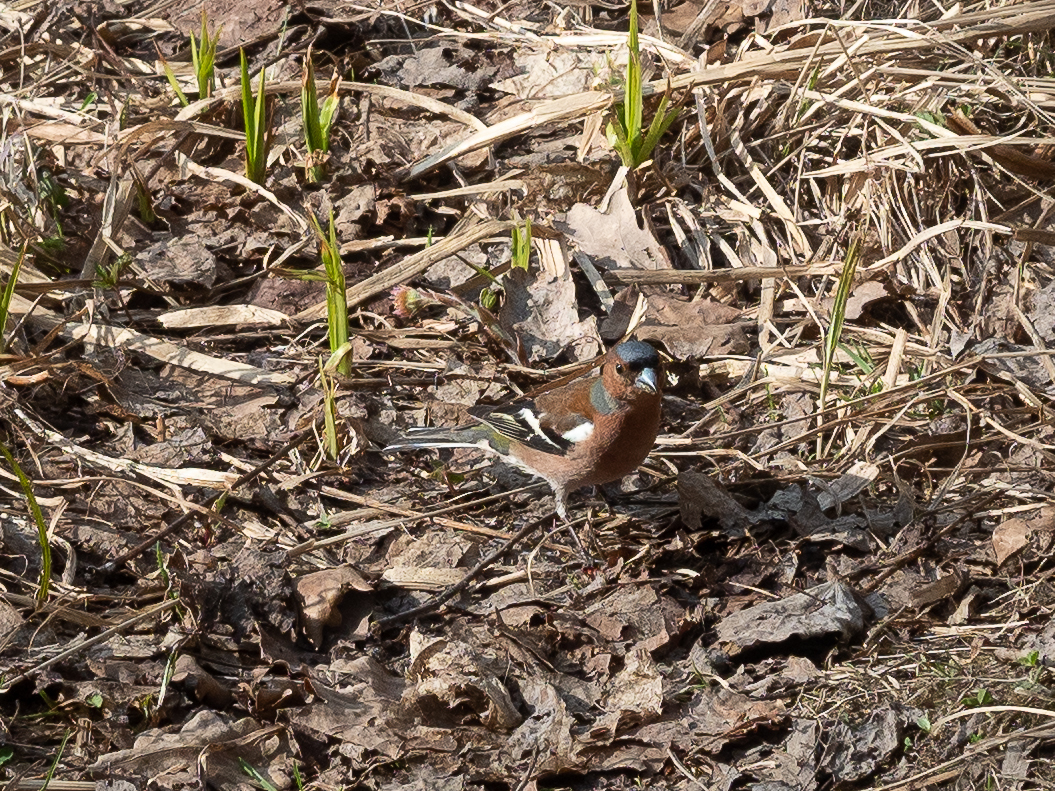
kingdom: Animalia
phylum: Chordata
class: Aves
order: Passeriformes
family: Fringillidae
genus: Fringilla
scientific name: Fringilla coelebs
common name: Common chaffinch
